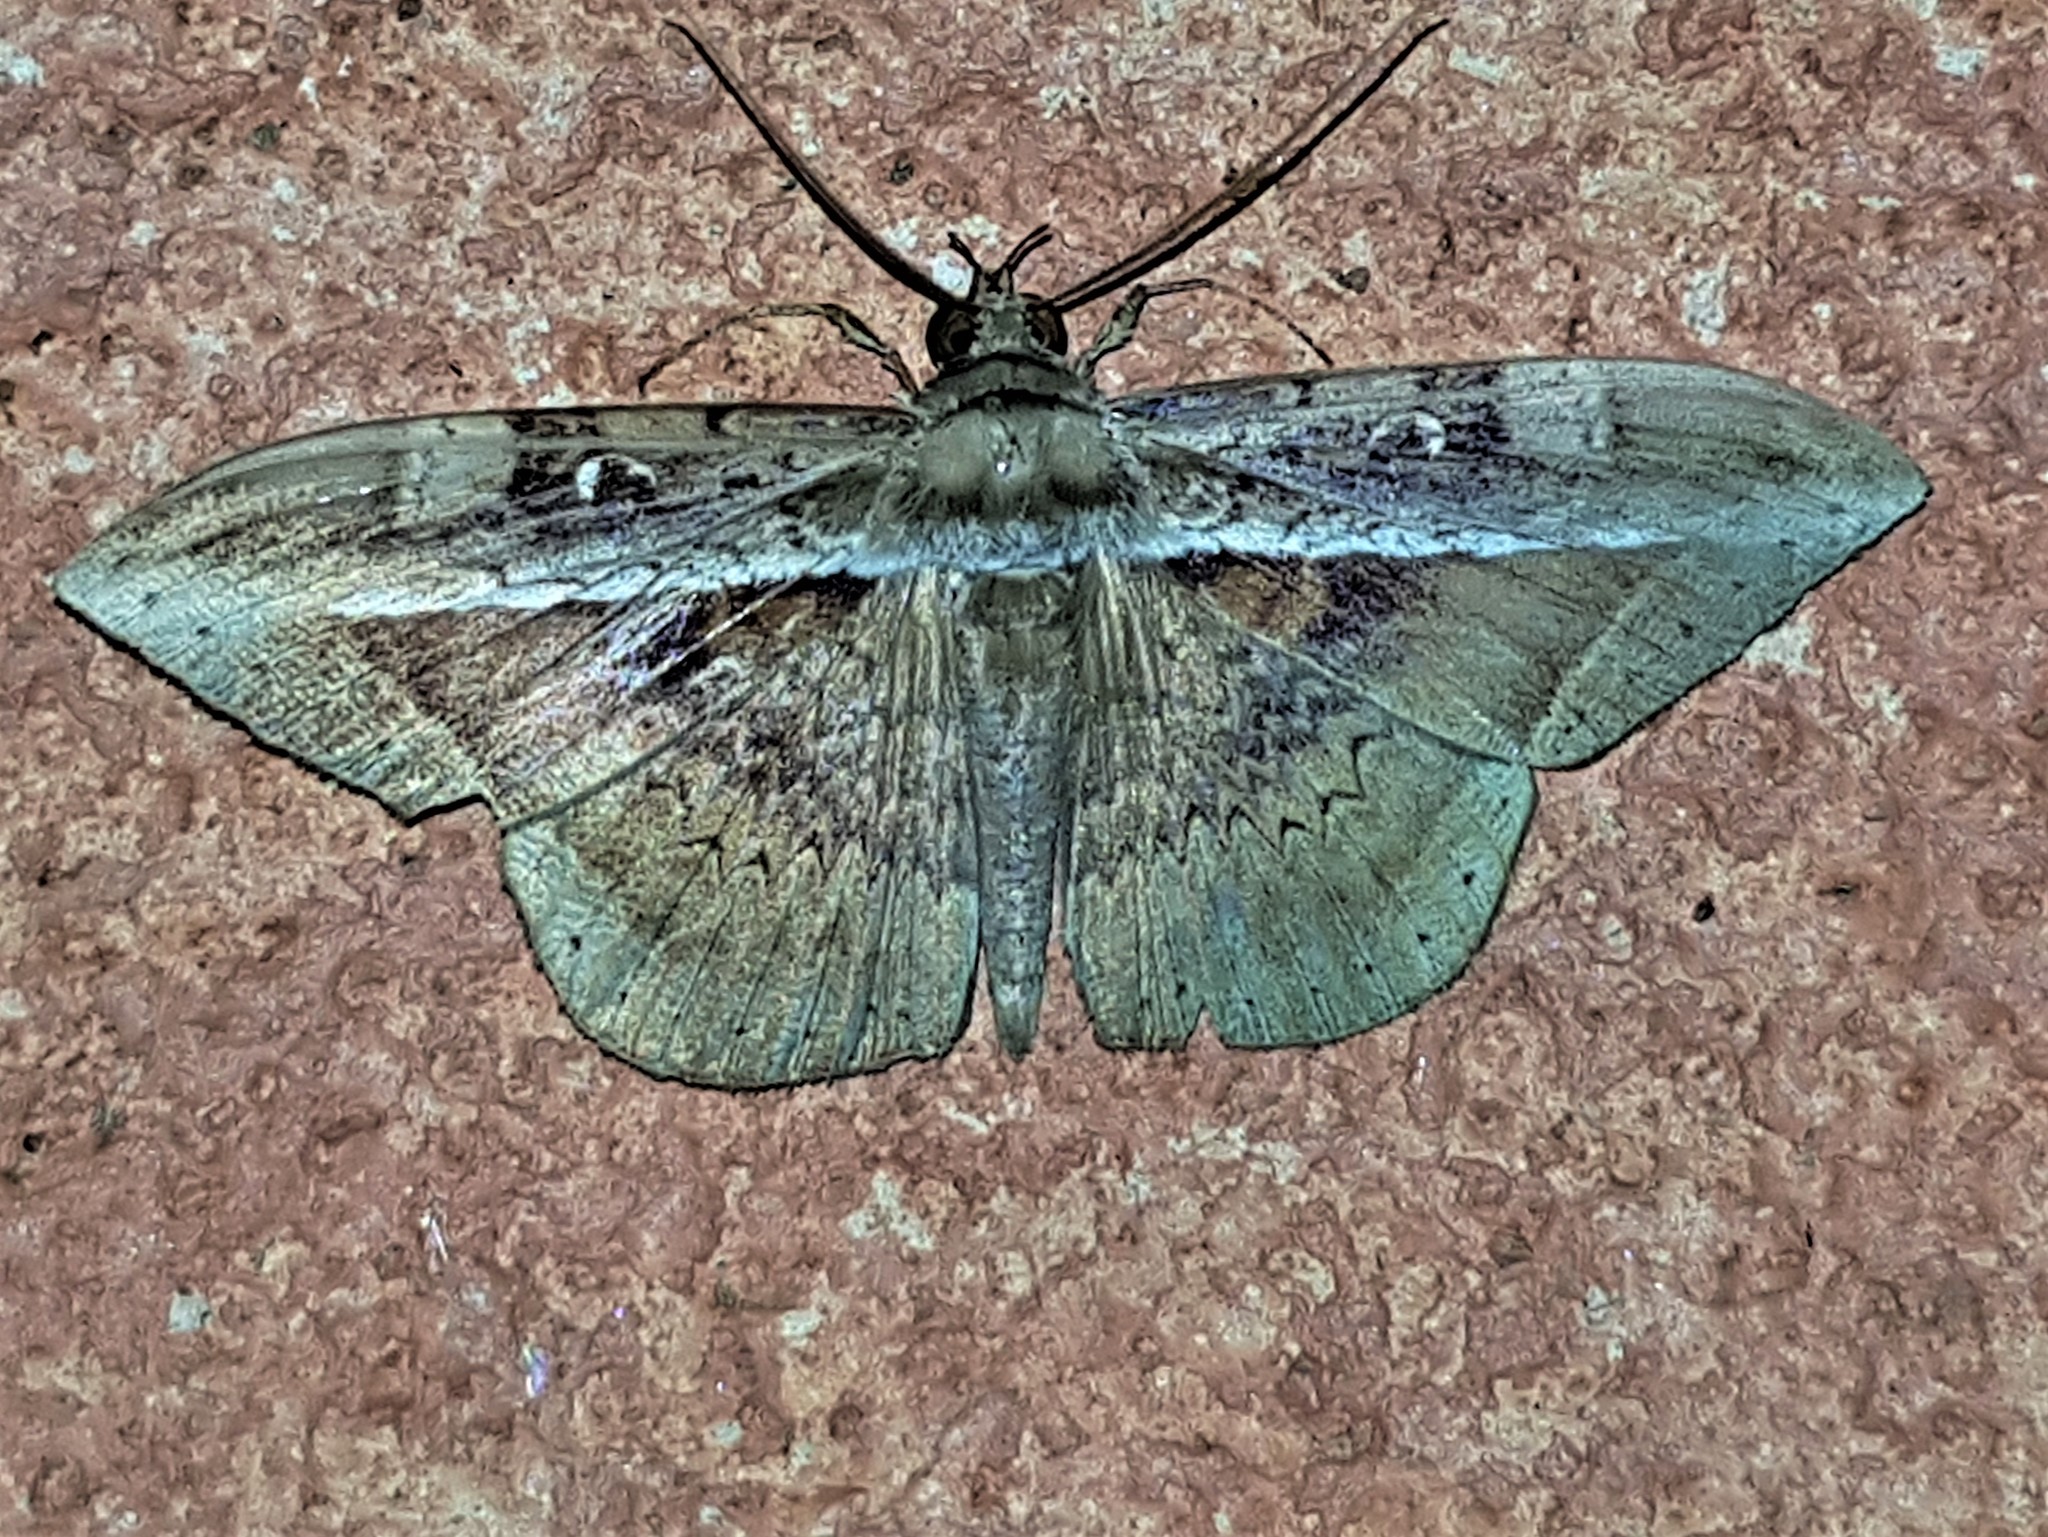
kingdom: Animalia
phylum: Arthropoda
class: Insecta
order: Lepidoptera
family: Erebidae
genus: Hemeroblemma
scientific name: Hemeroblemma opigena
